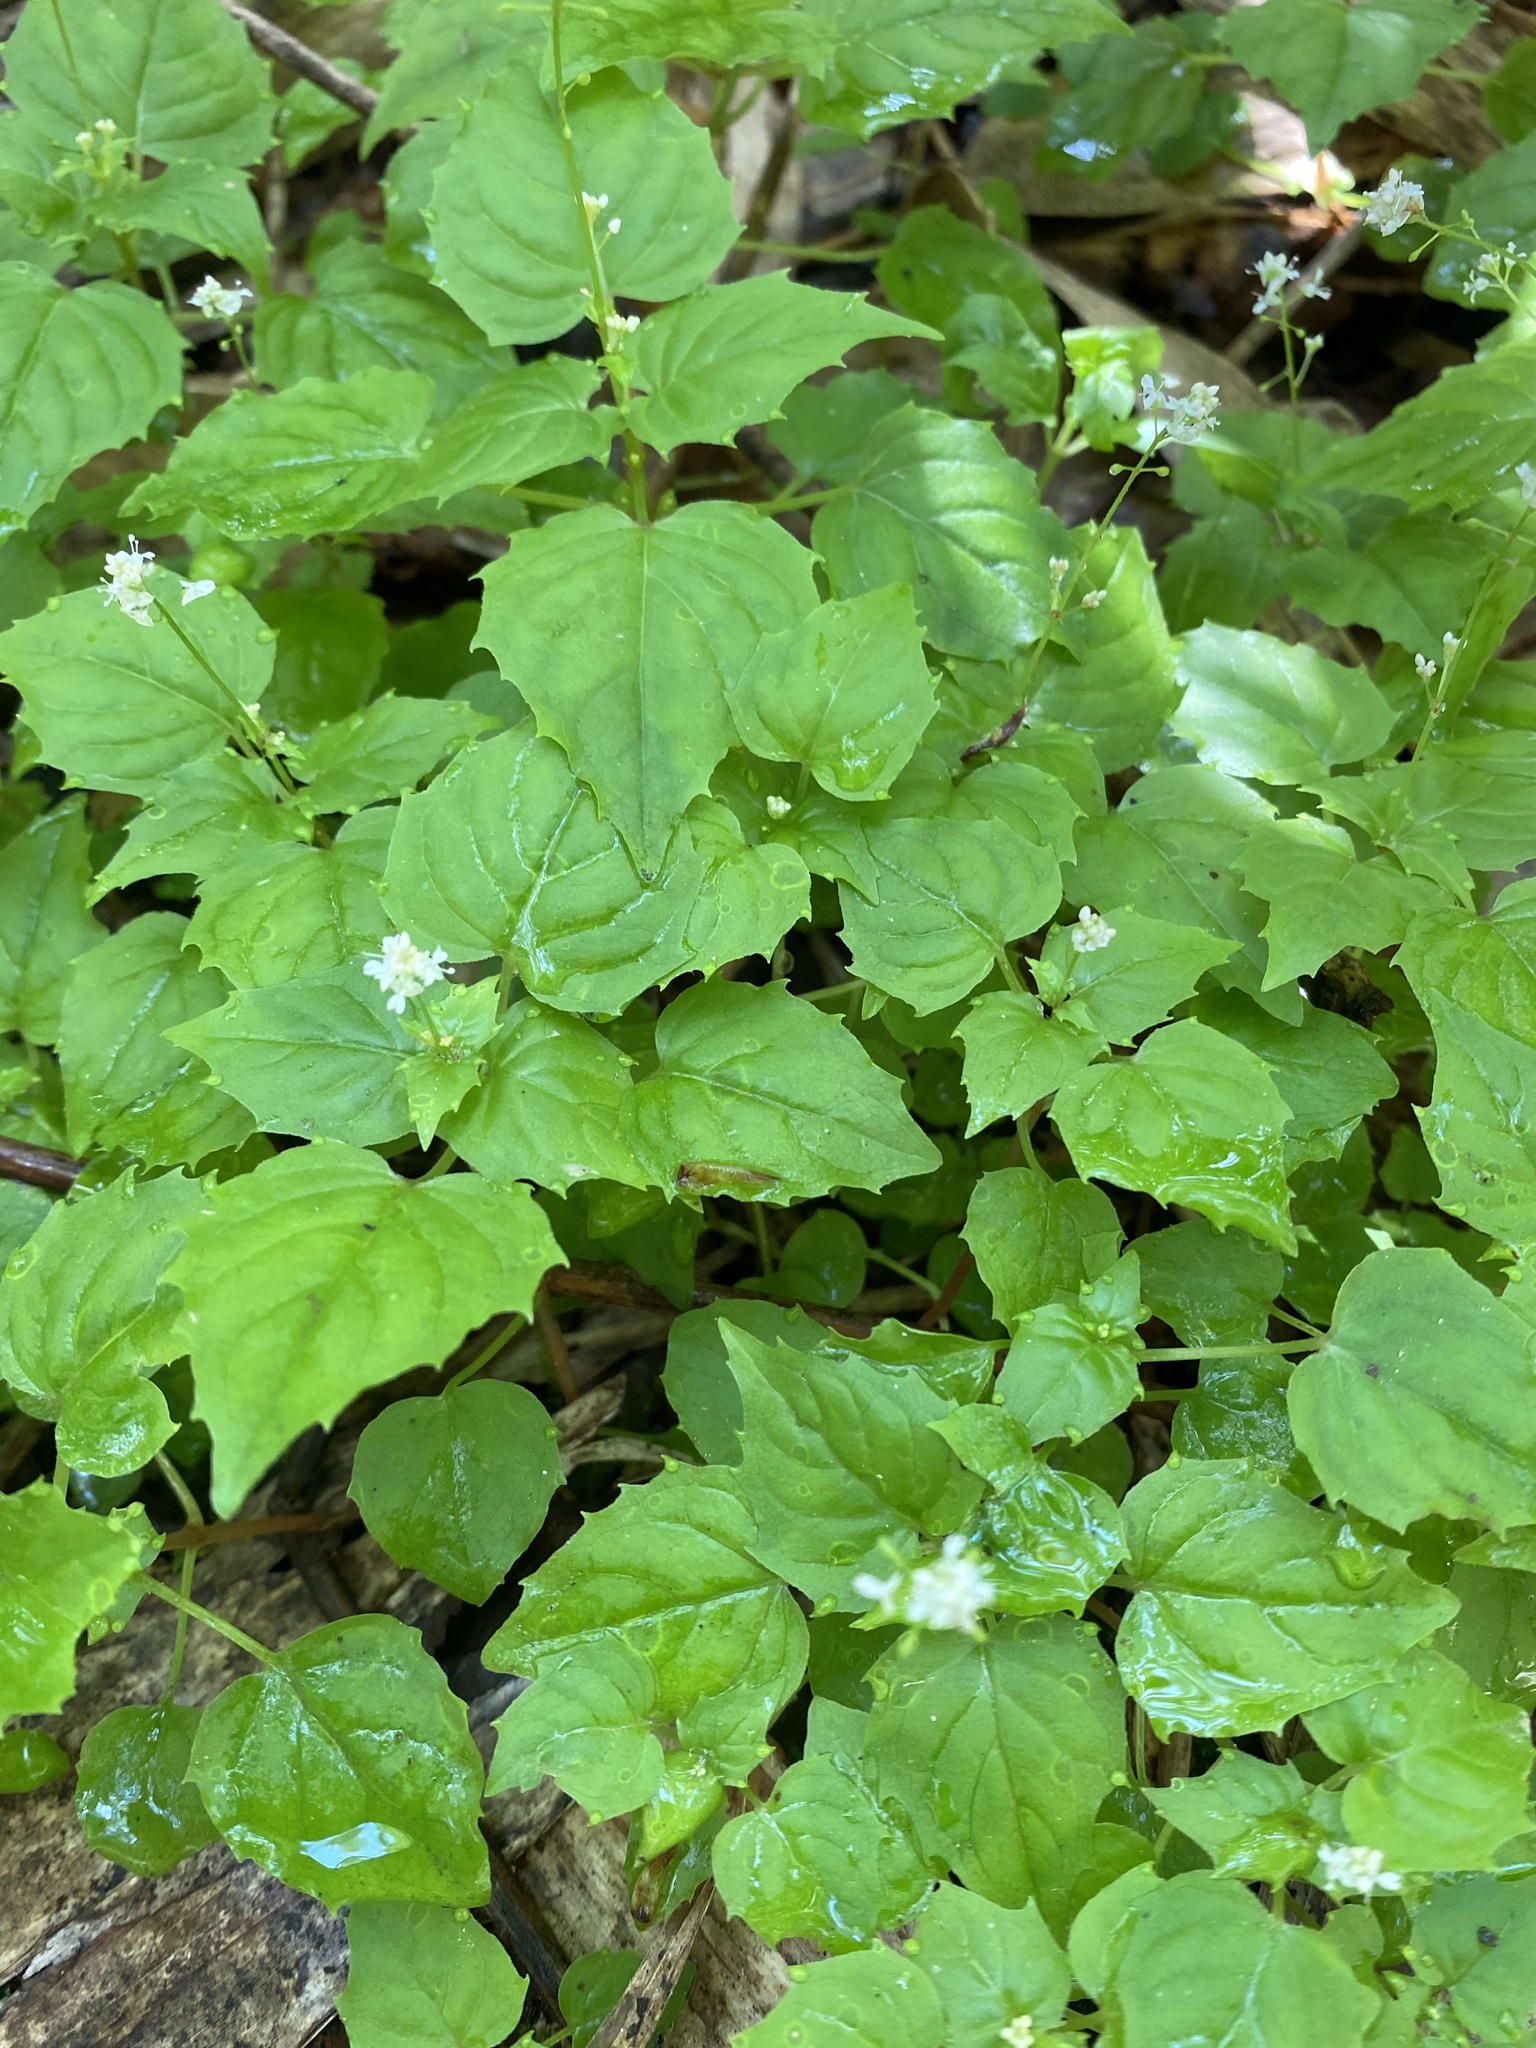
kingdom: Plantae
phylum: Tracheophyta
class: Magnoliopsida
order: Myrtales
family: Onagraceae
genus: Circaea
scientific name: Circaea alpina
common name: Alpine enchanter's-nightshade
